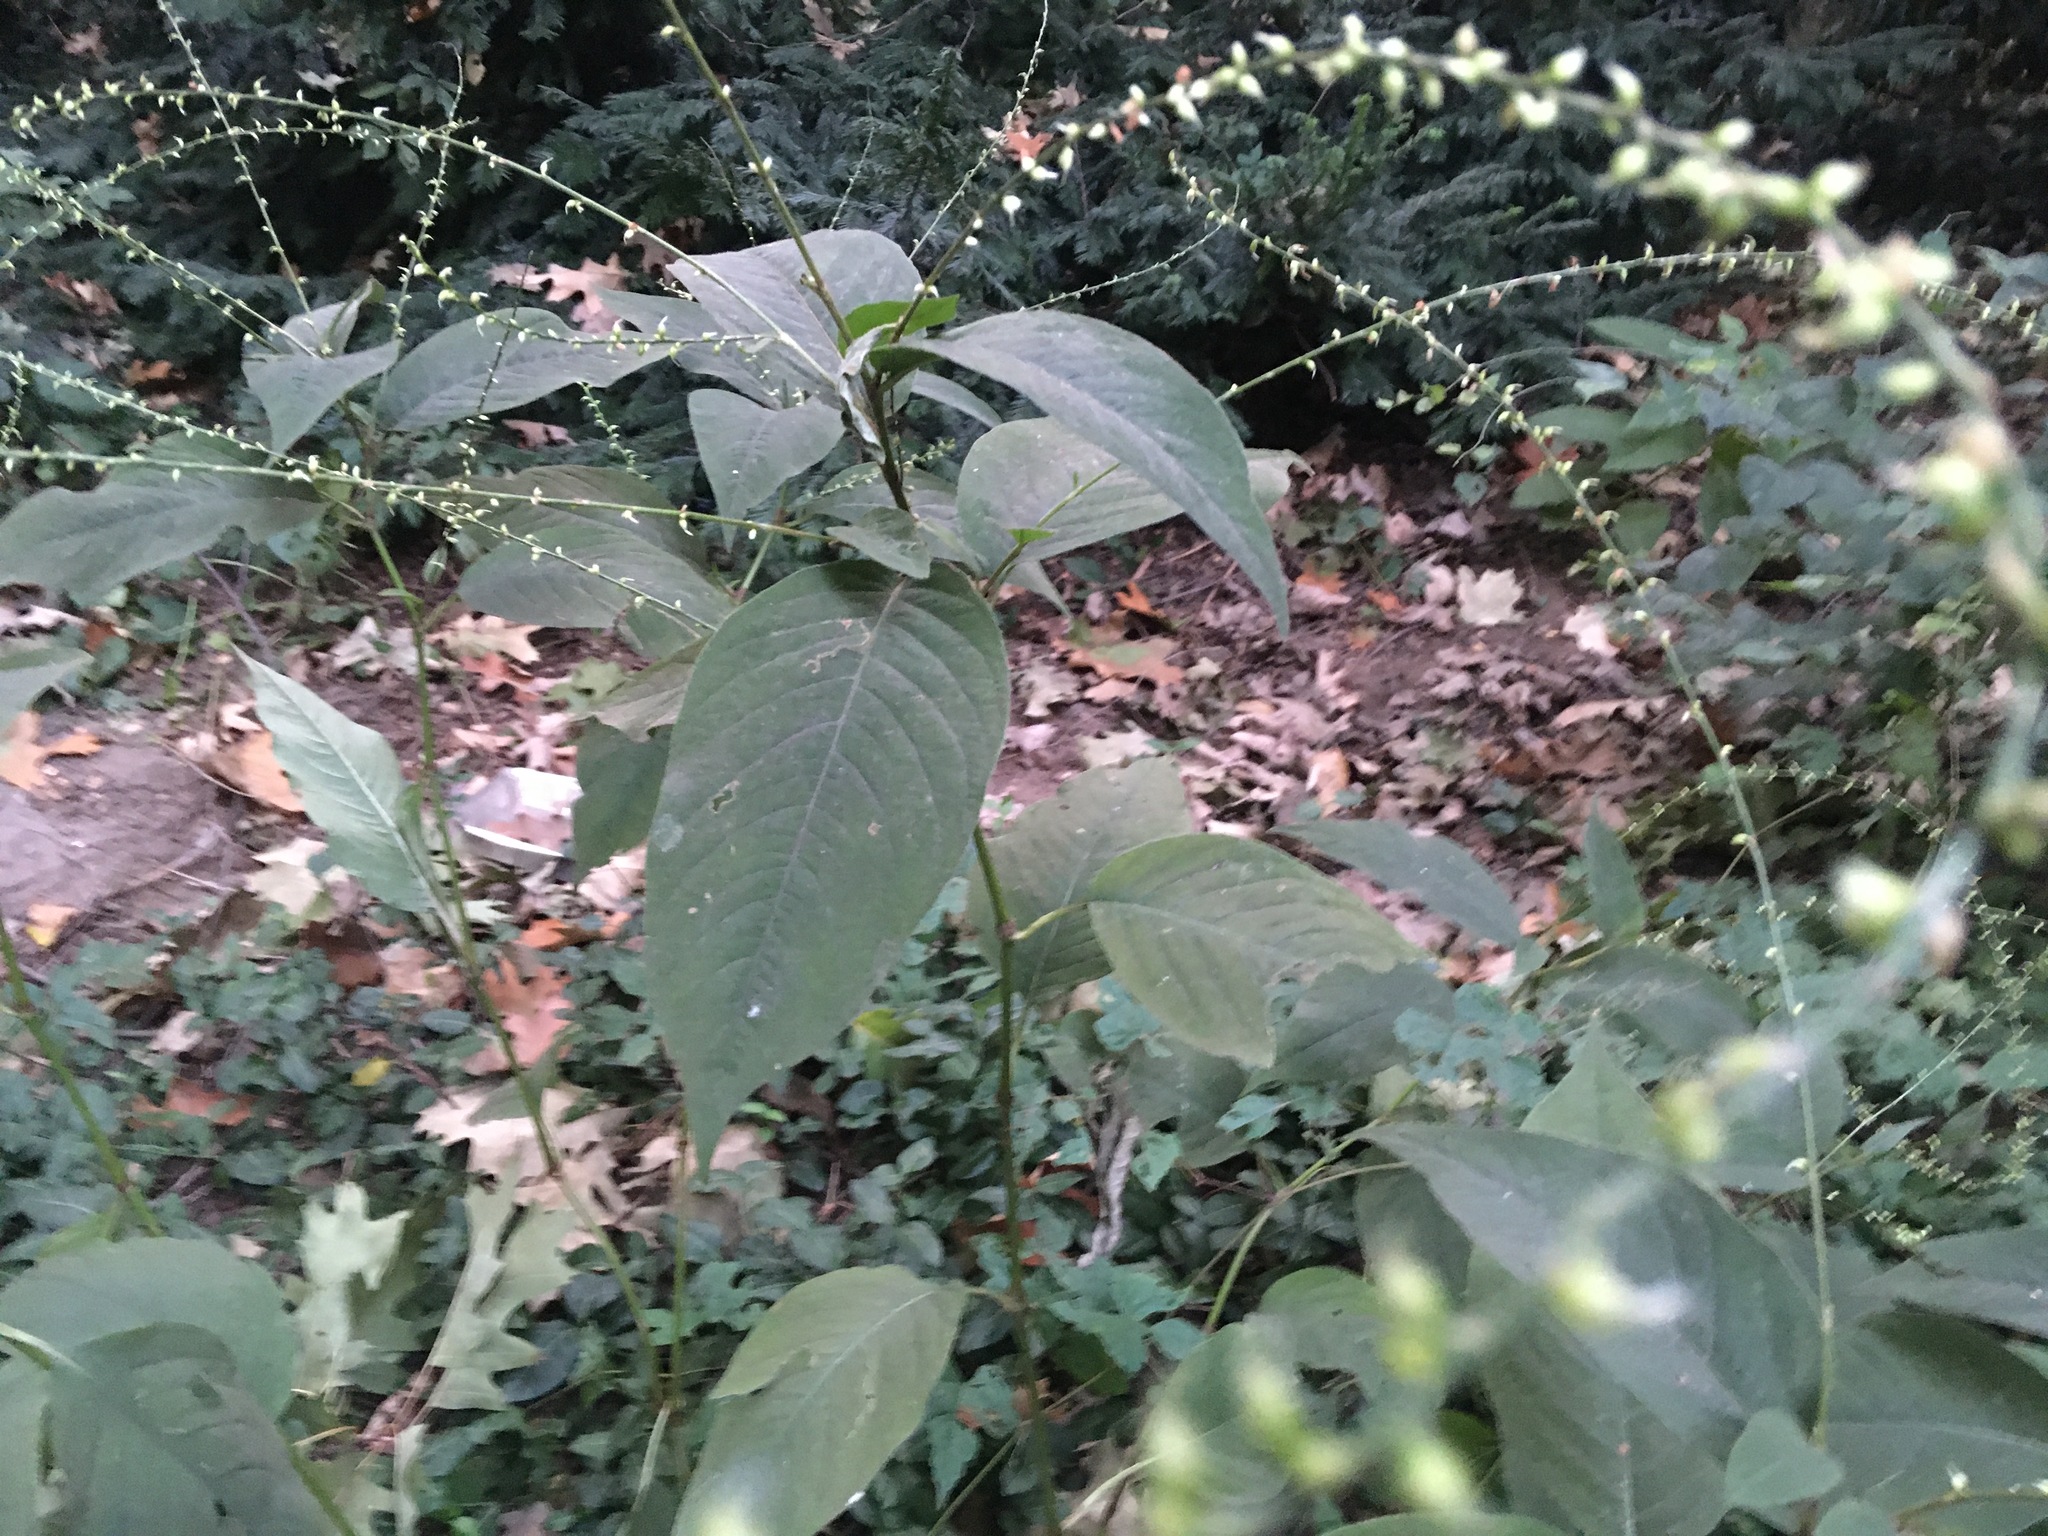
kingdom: Plantae
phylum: Tracheophyta
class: Magnoliopsida
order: Caryophyllales
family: Polygonaceae
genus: Persicaria
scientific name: Persicaria virginiana
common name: Jumpseed
